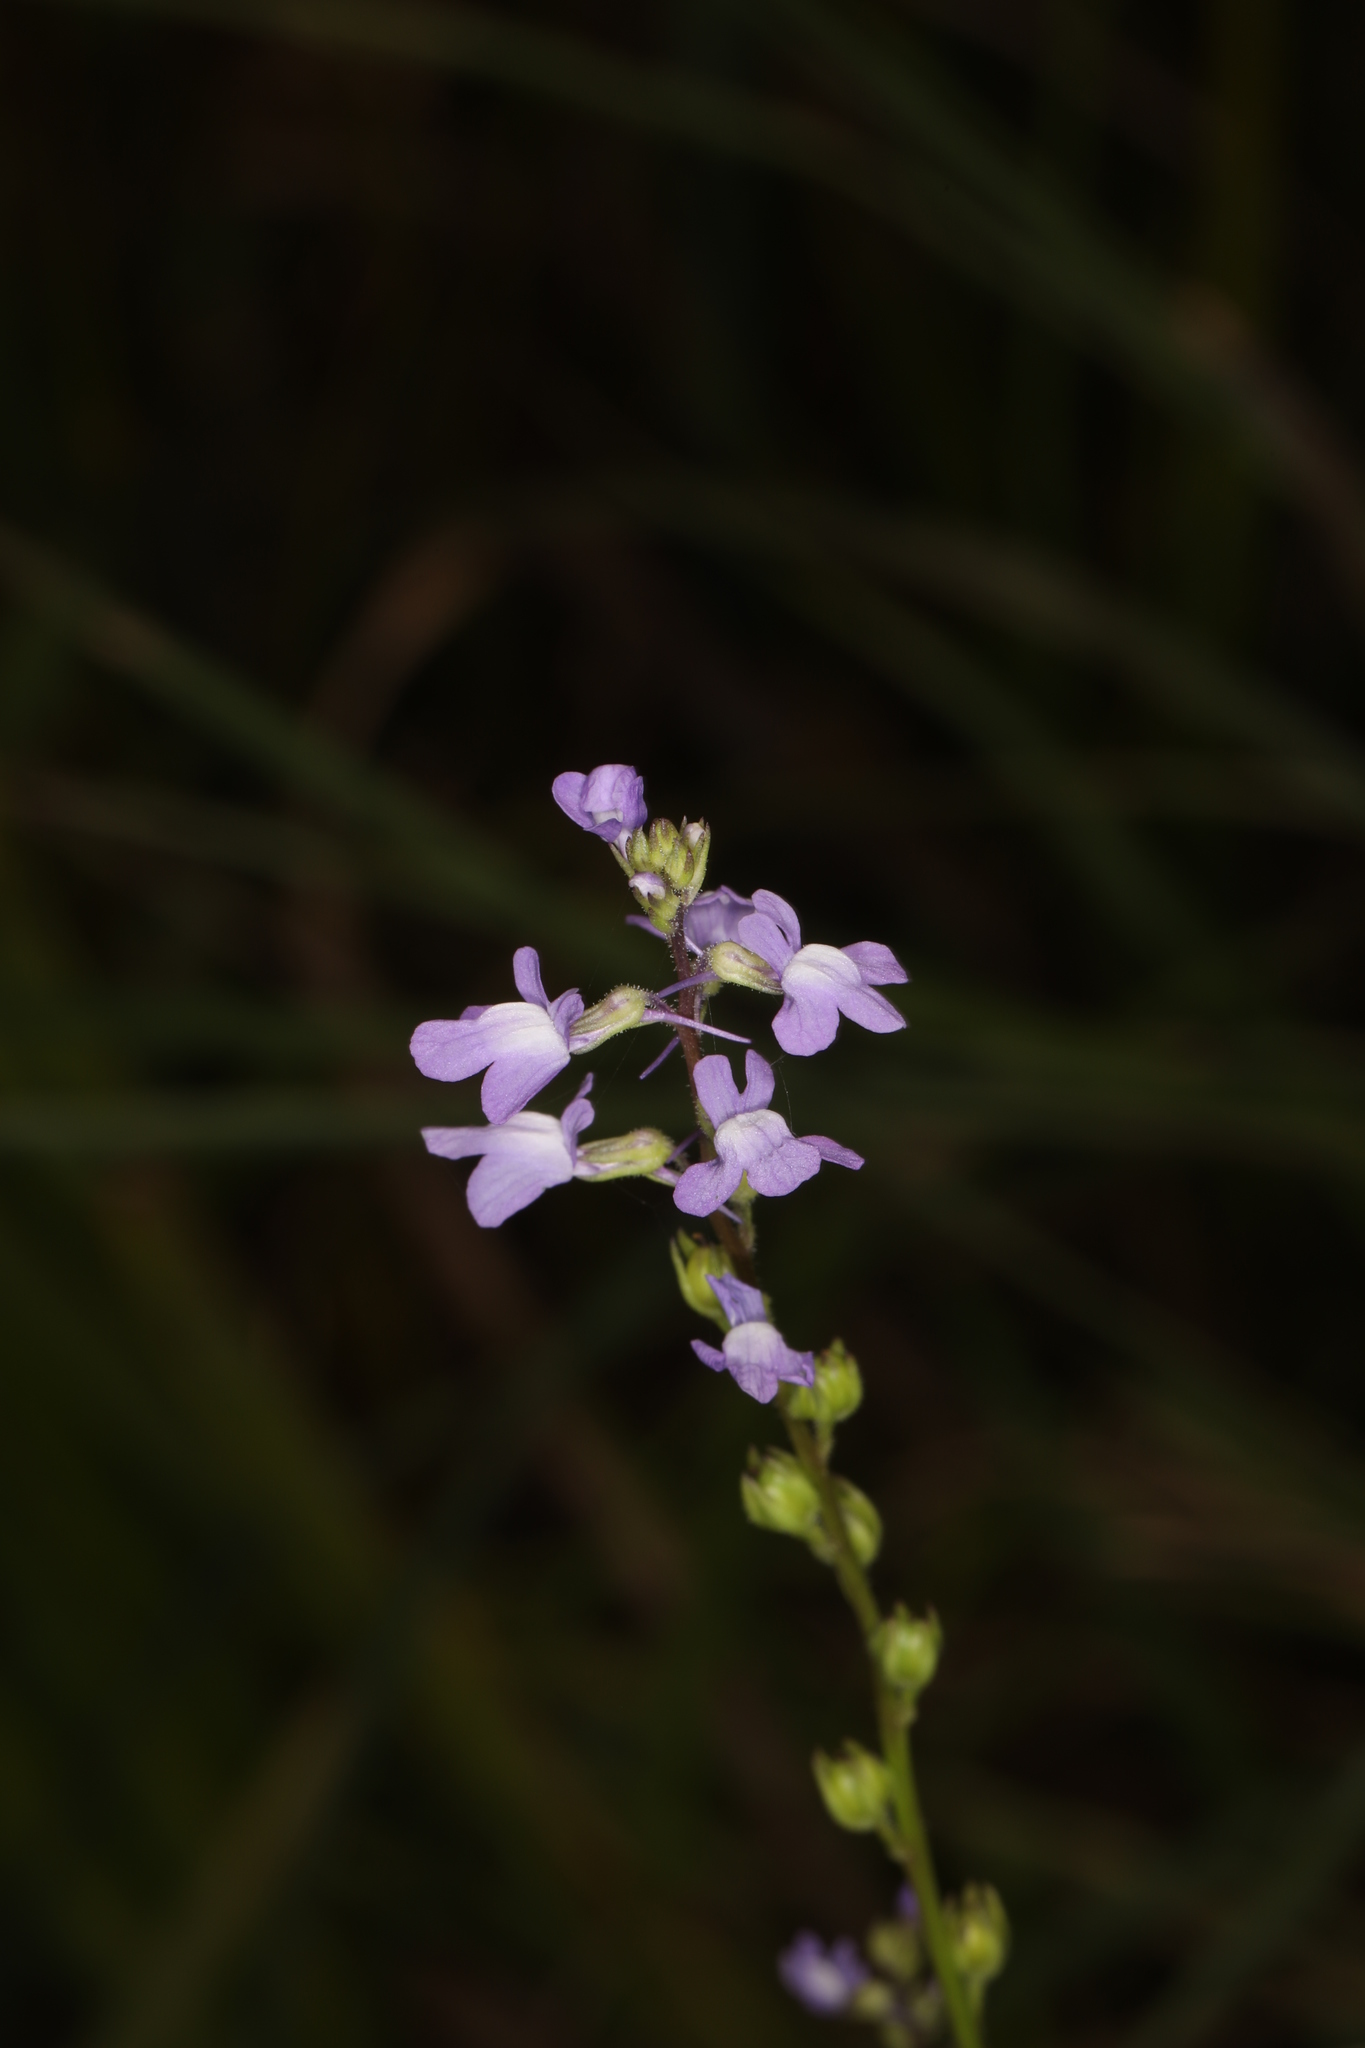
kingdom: Plantae
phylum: Tracheophyta
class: Magnoliopsida
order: Lamiales
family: Plantaginaceae
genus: Nuttallanthus
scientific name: Nuttallanthus canadensis
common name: Blue toadflax
